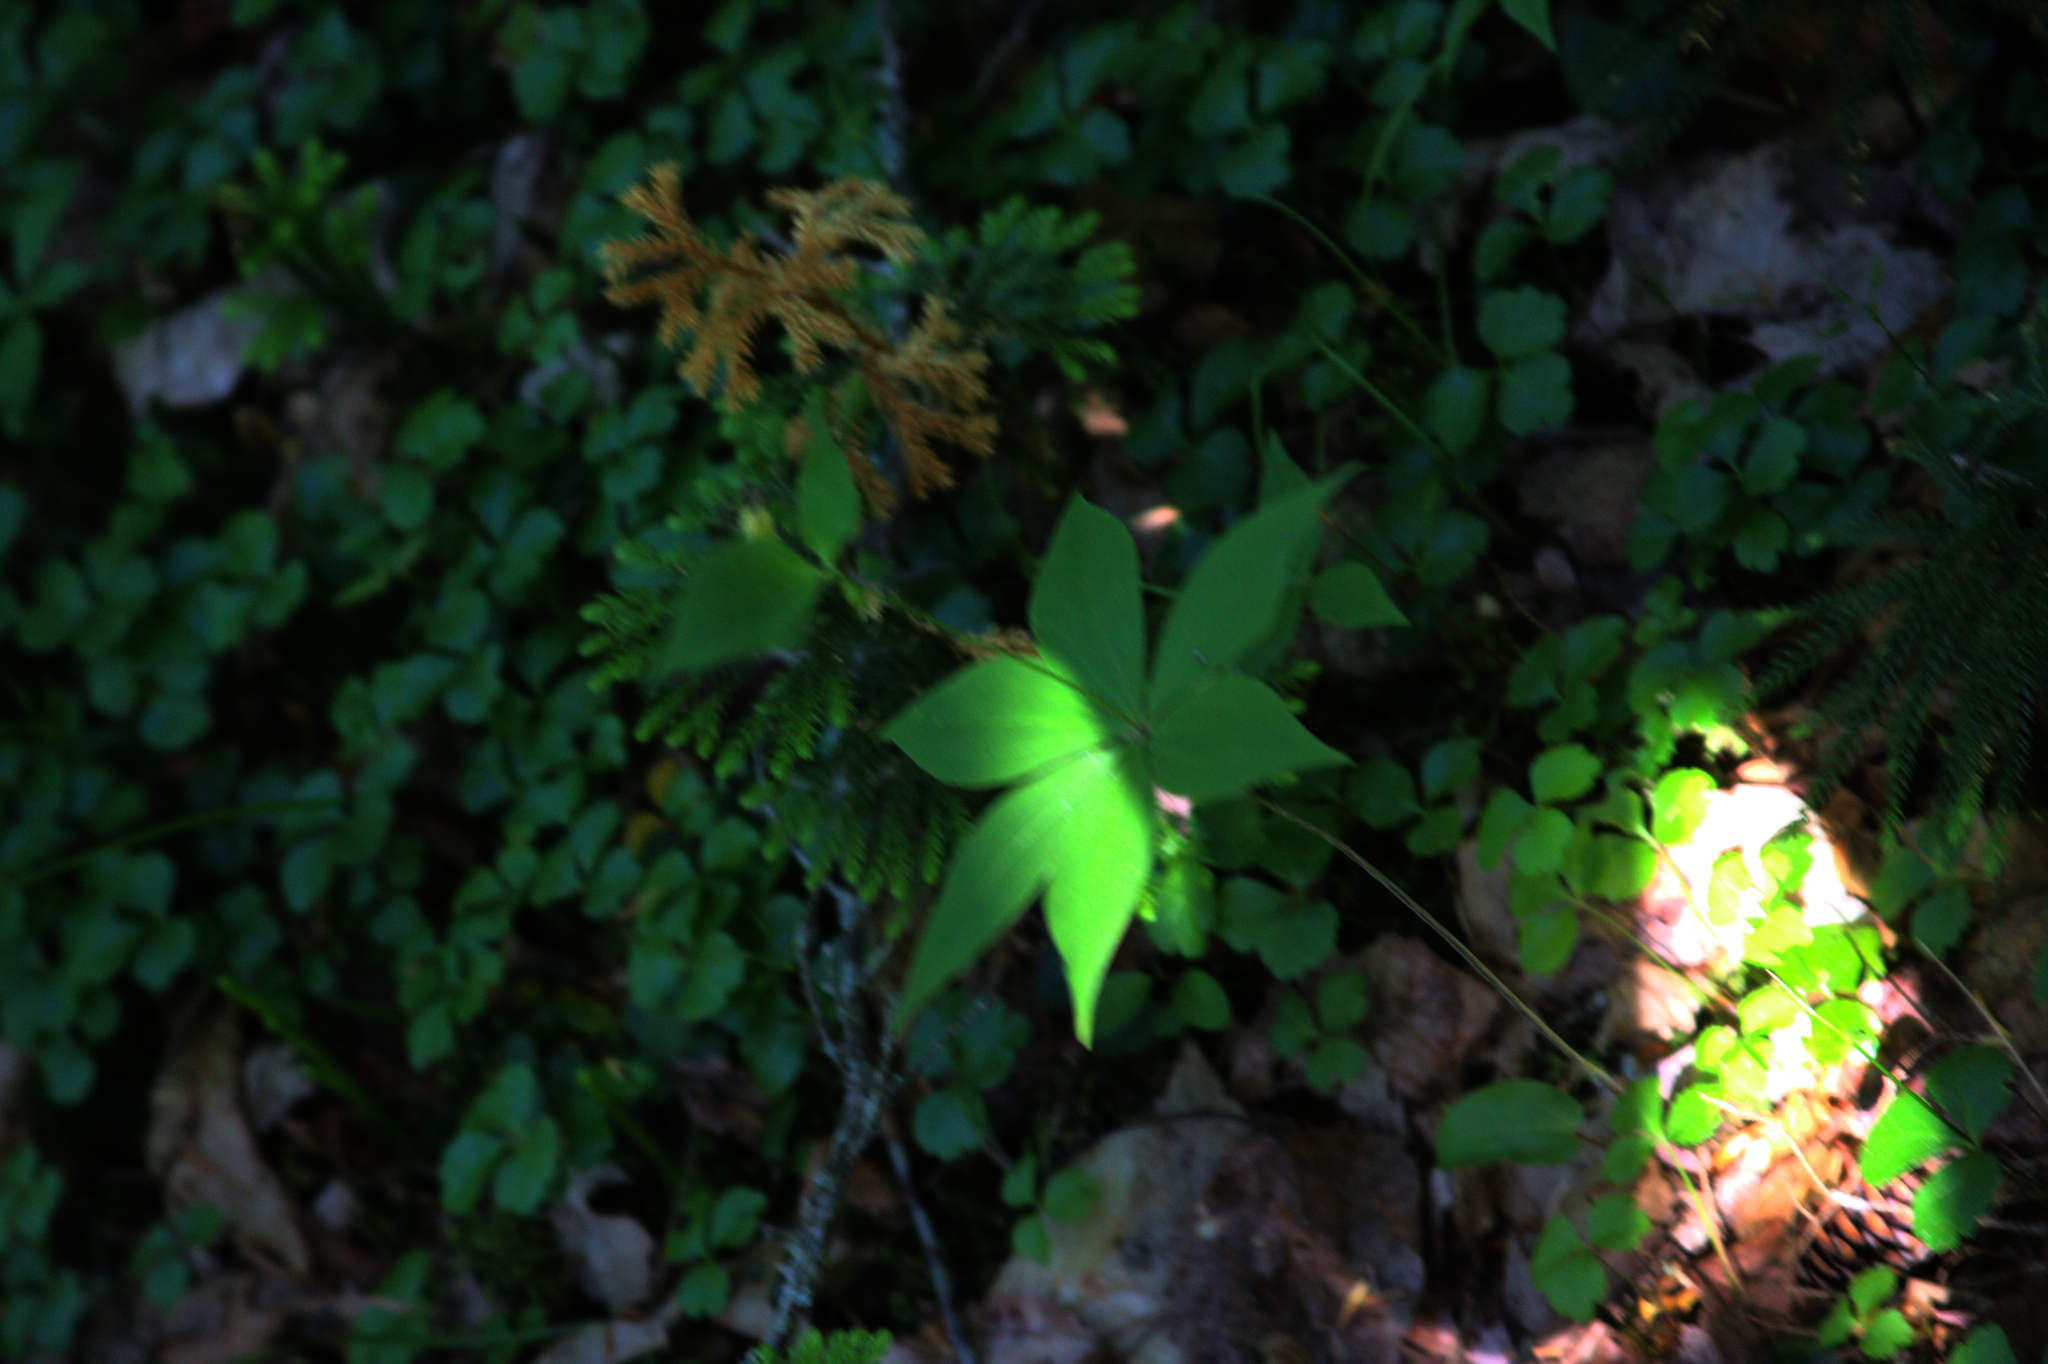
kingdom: Plantae
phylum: Tracheophyta
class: Liliopsida
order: Liliales
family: Liliaceae
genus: Medeola
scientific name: Medeola virginiana
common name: Indian cucumber-root
